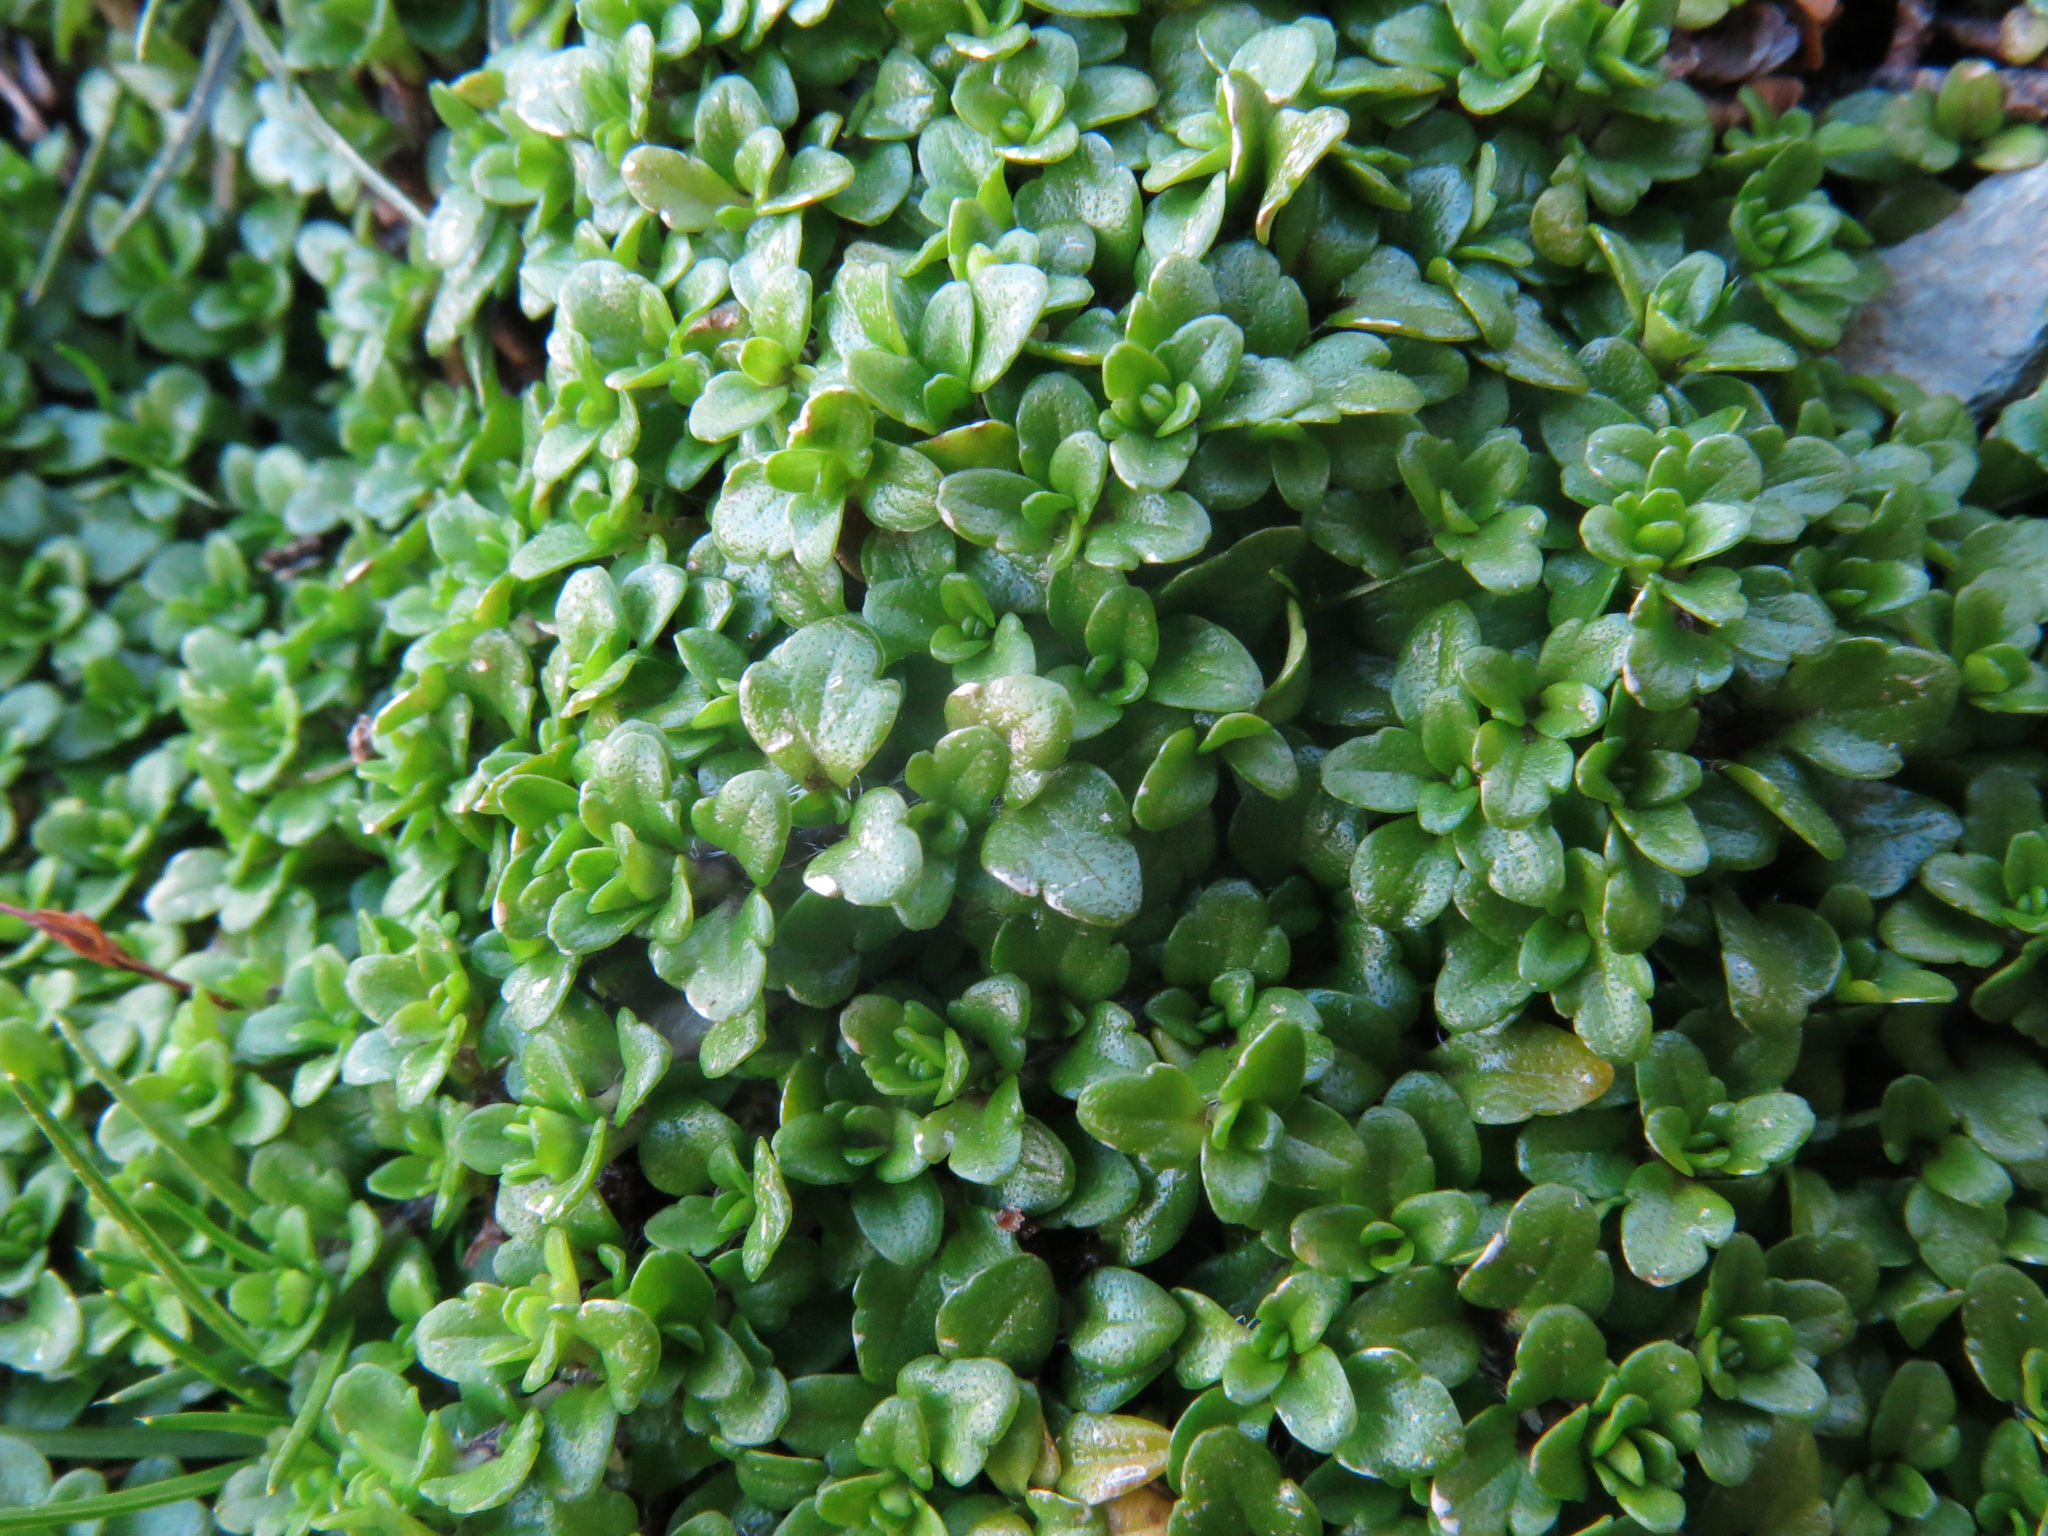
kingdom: Plantae
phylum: Tracheophyta
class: Magnoliopsida
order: Lamiales
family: Plantaginaceae
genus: Ourisia
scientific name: Ourisia caespitosa
